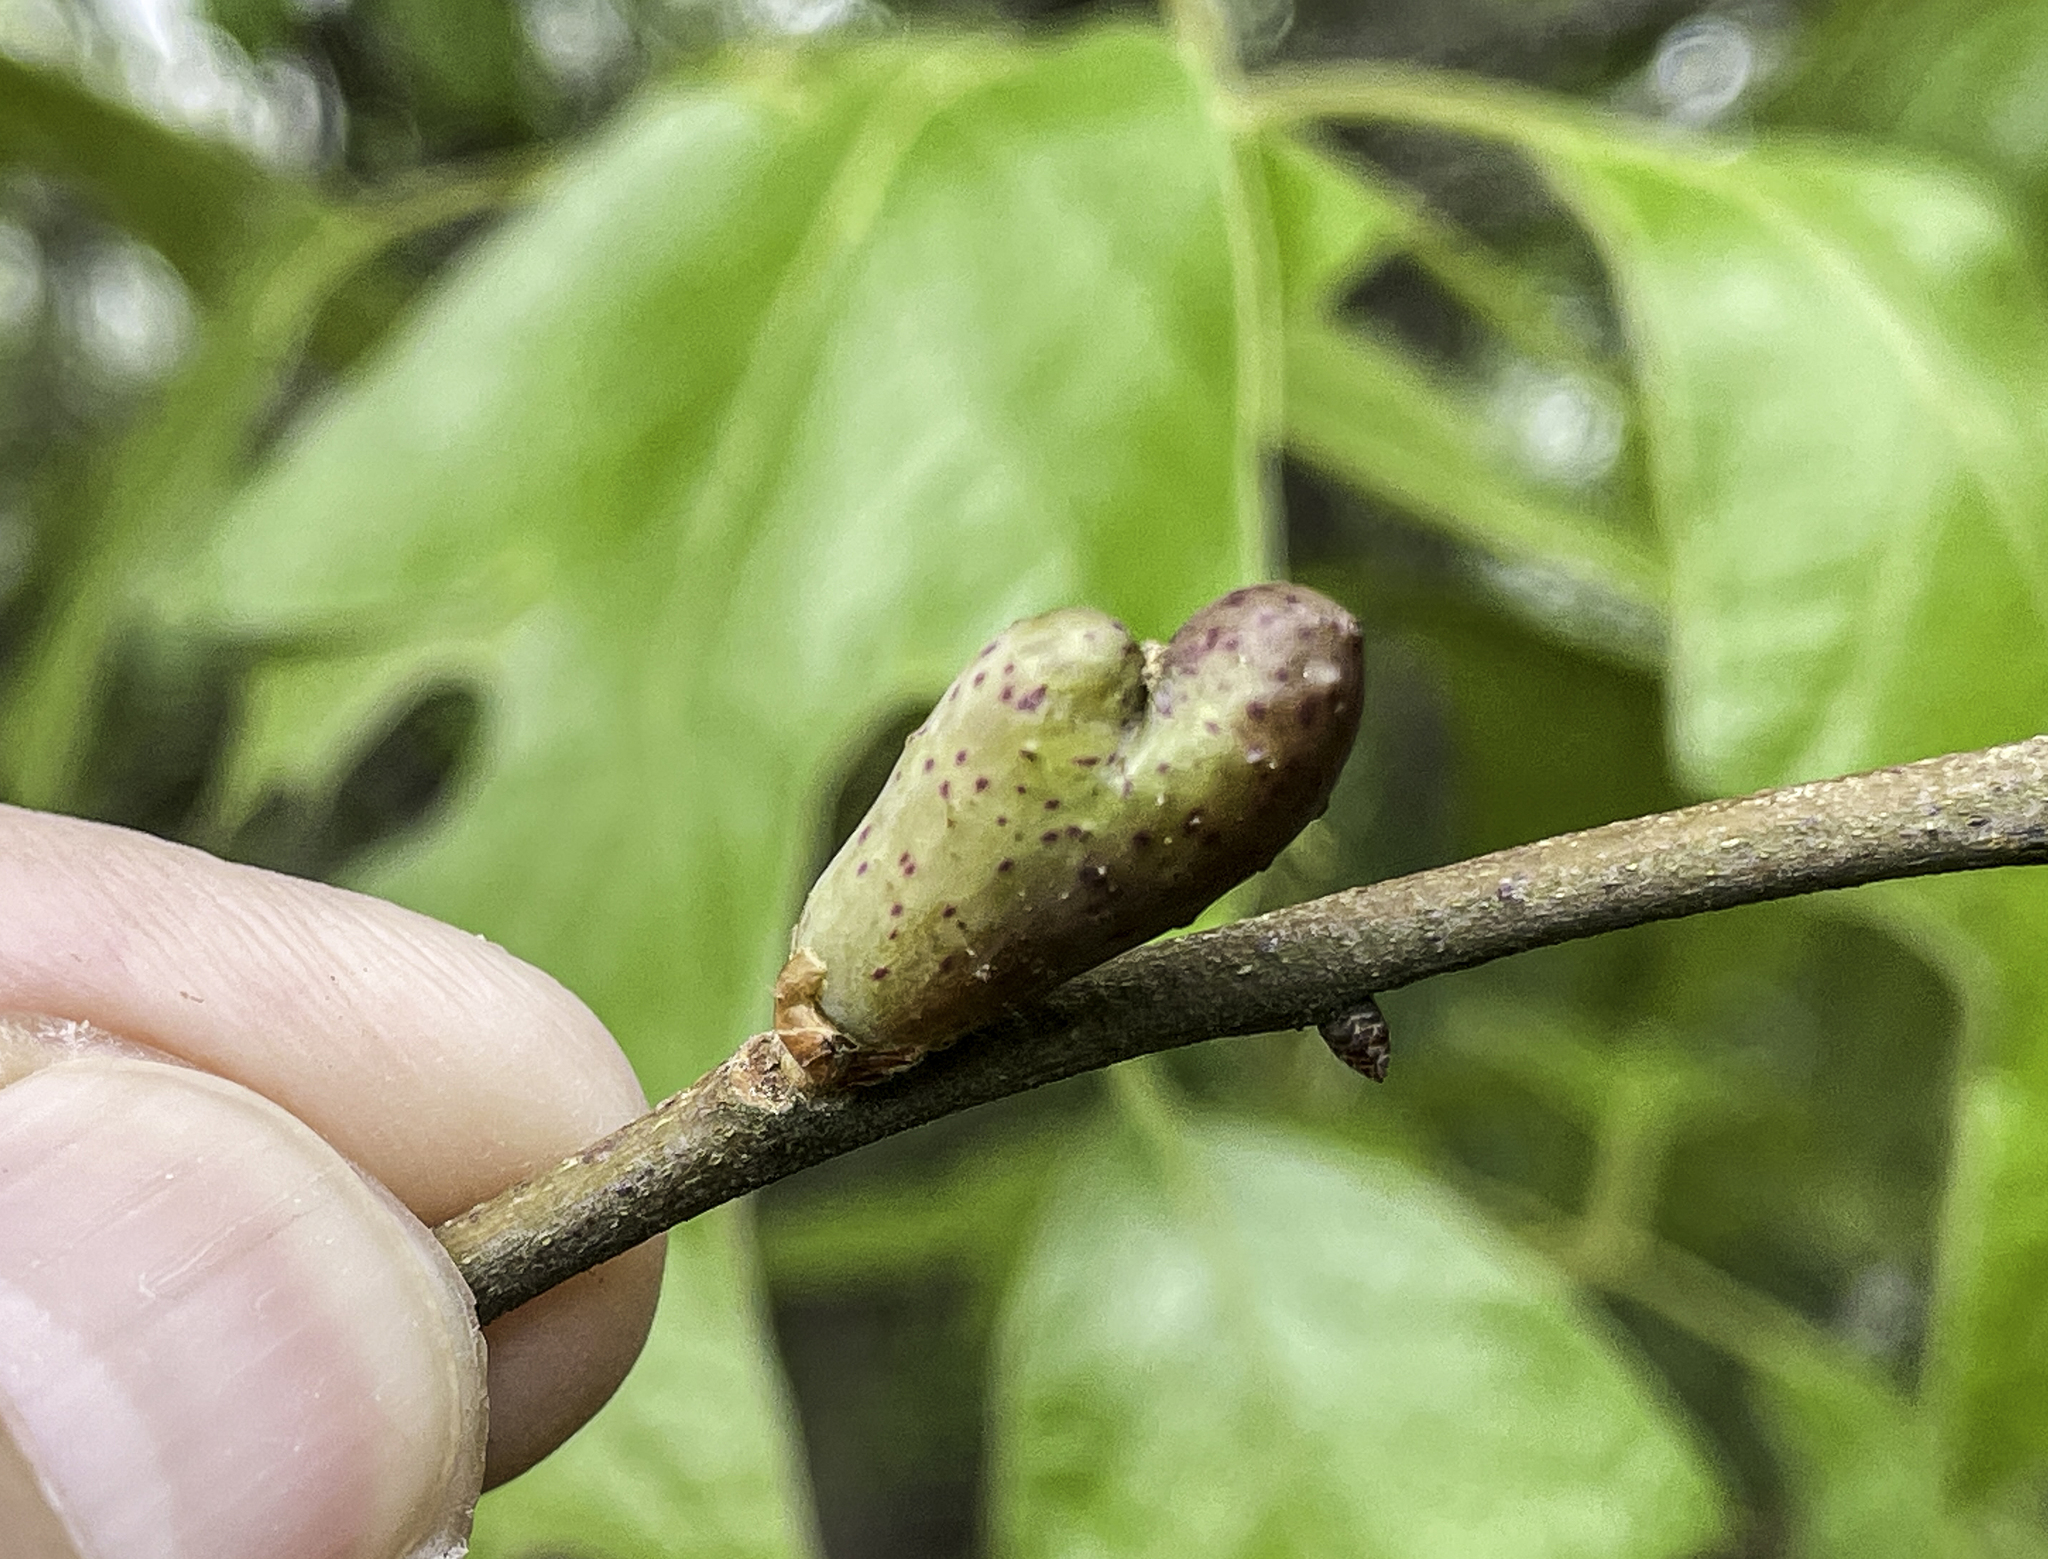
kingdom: Animalia
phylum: Arthropoda
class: Insecta
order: Hymenoptera
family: Cynipidae
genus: Amphibolips
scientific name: Amphibolips
